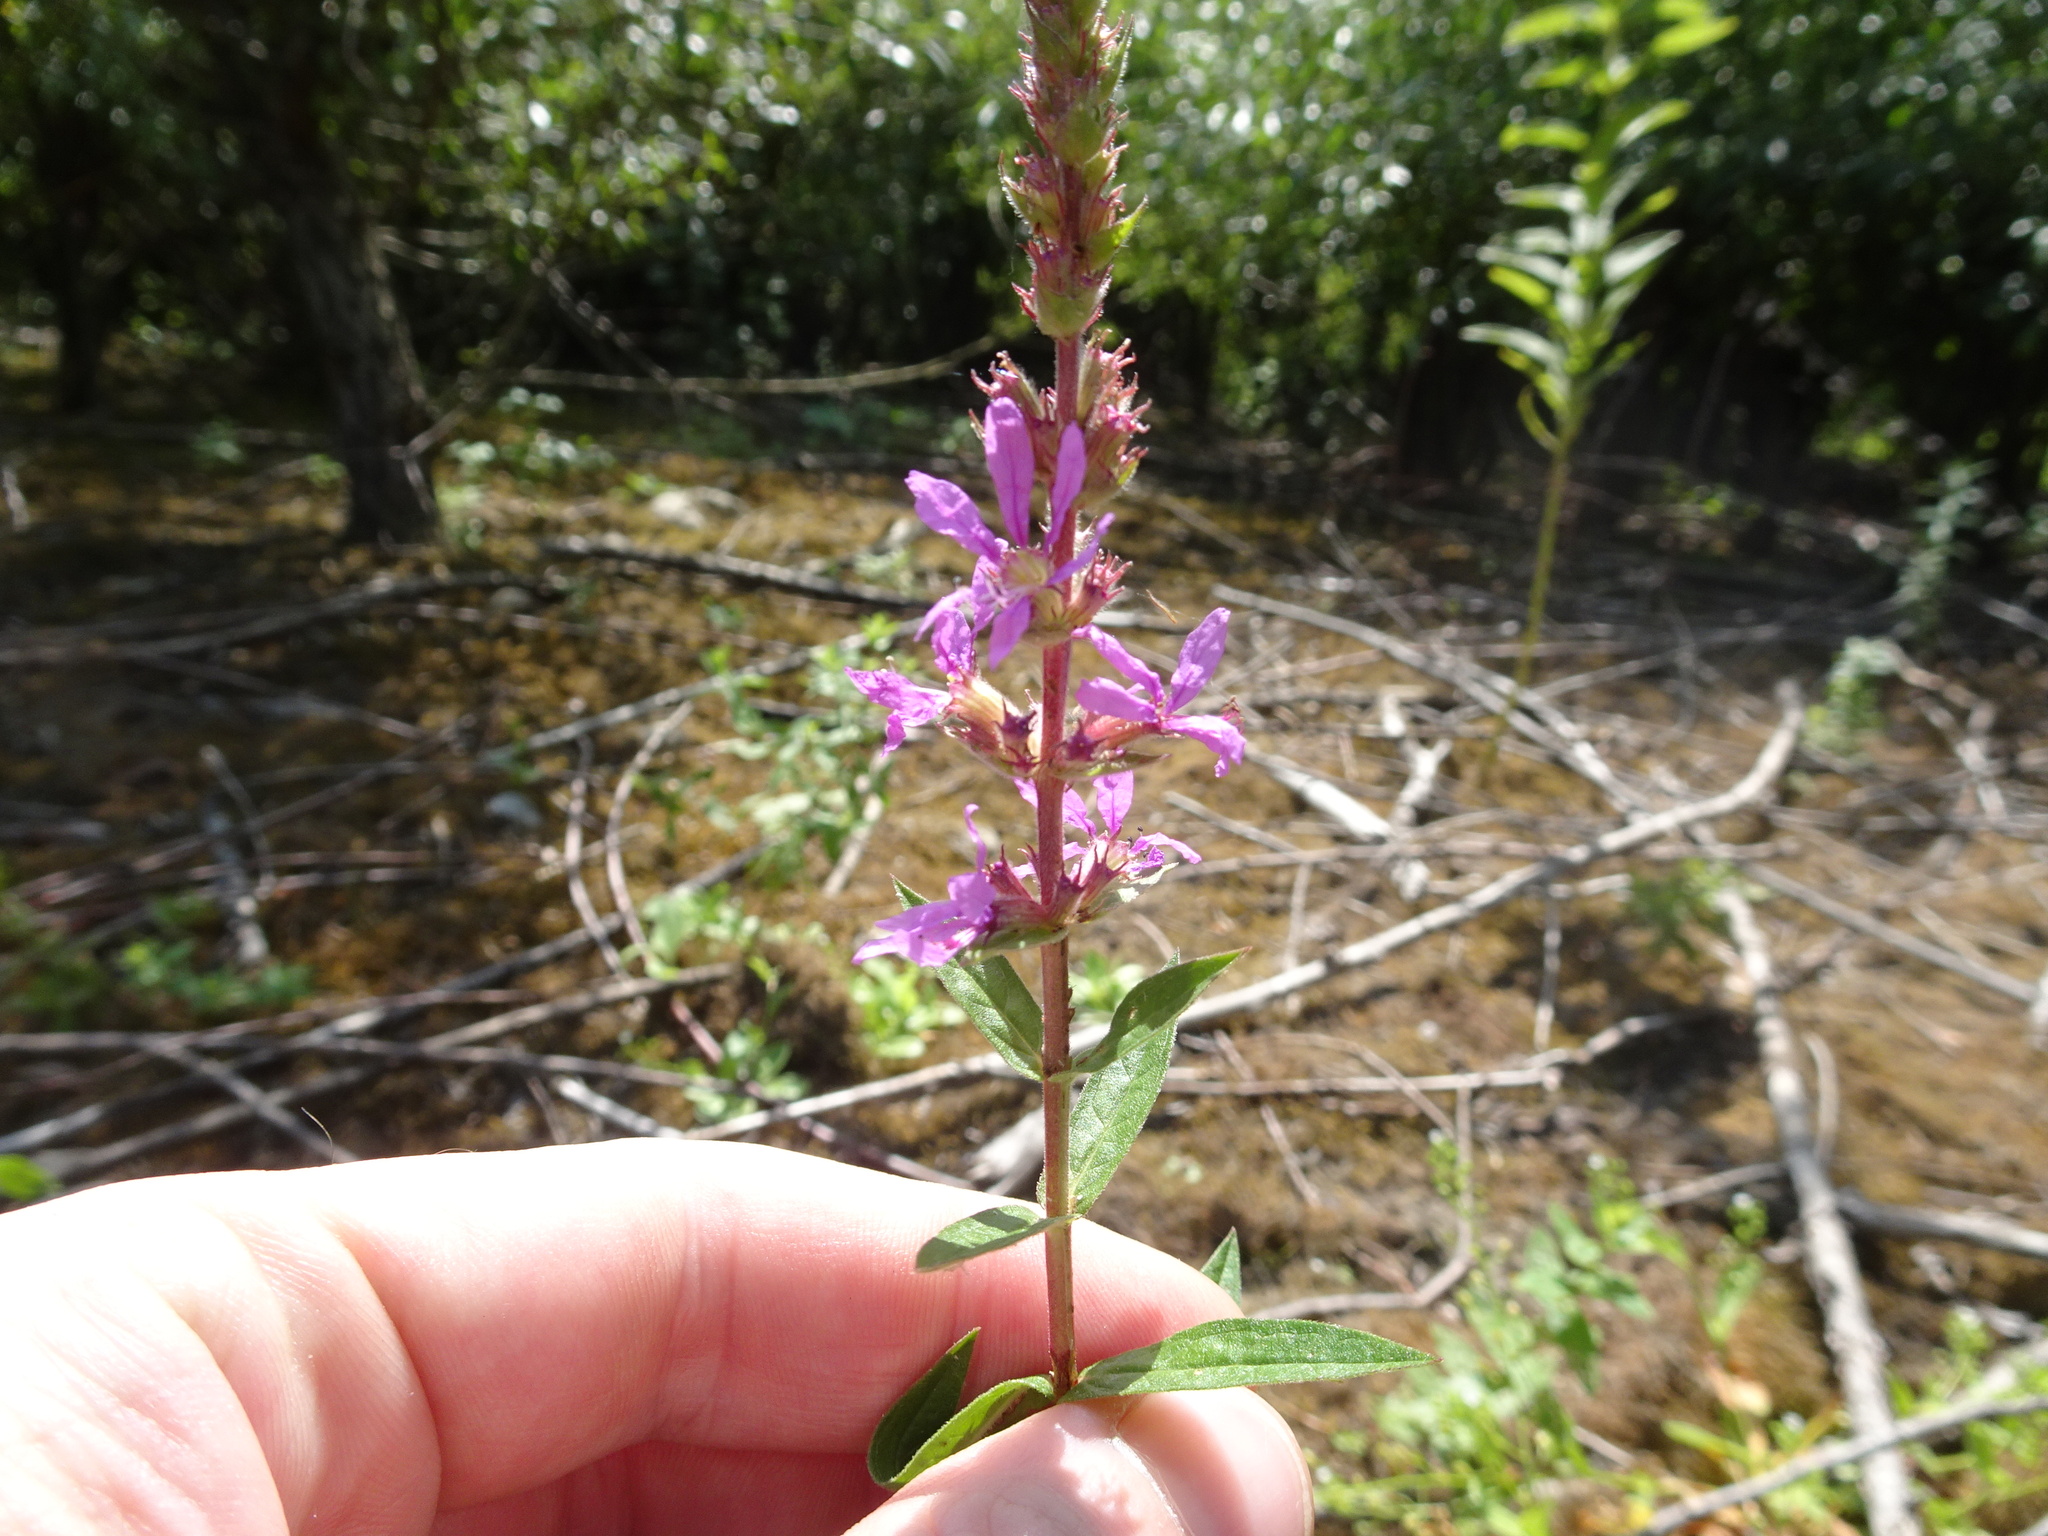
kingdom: Plantae
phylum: Tracheophyta
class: Magnoliopsida
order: Myrtales
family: Lythraceae
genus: Lythrum
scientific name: Lythrum salicaria
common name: Purple loosestrife
